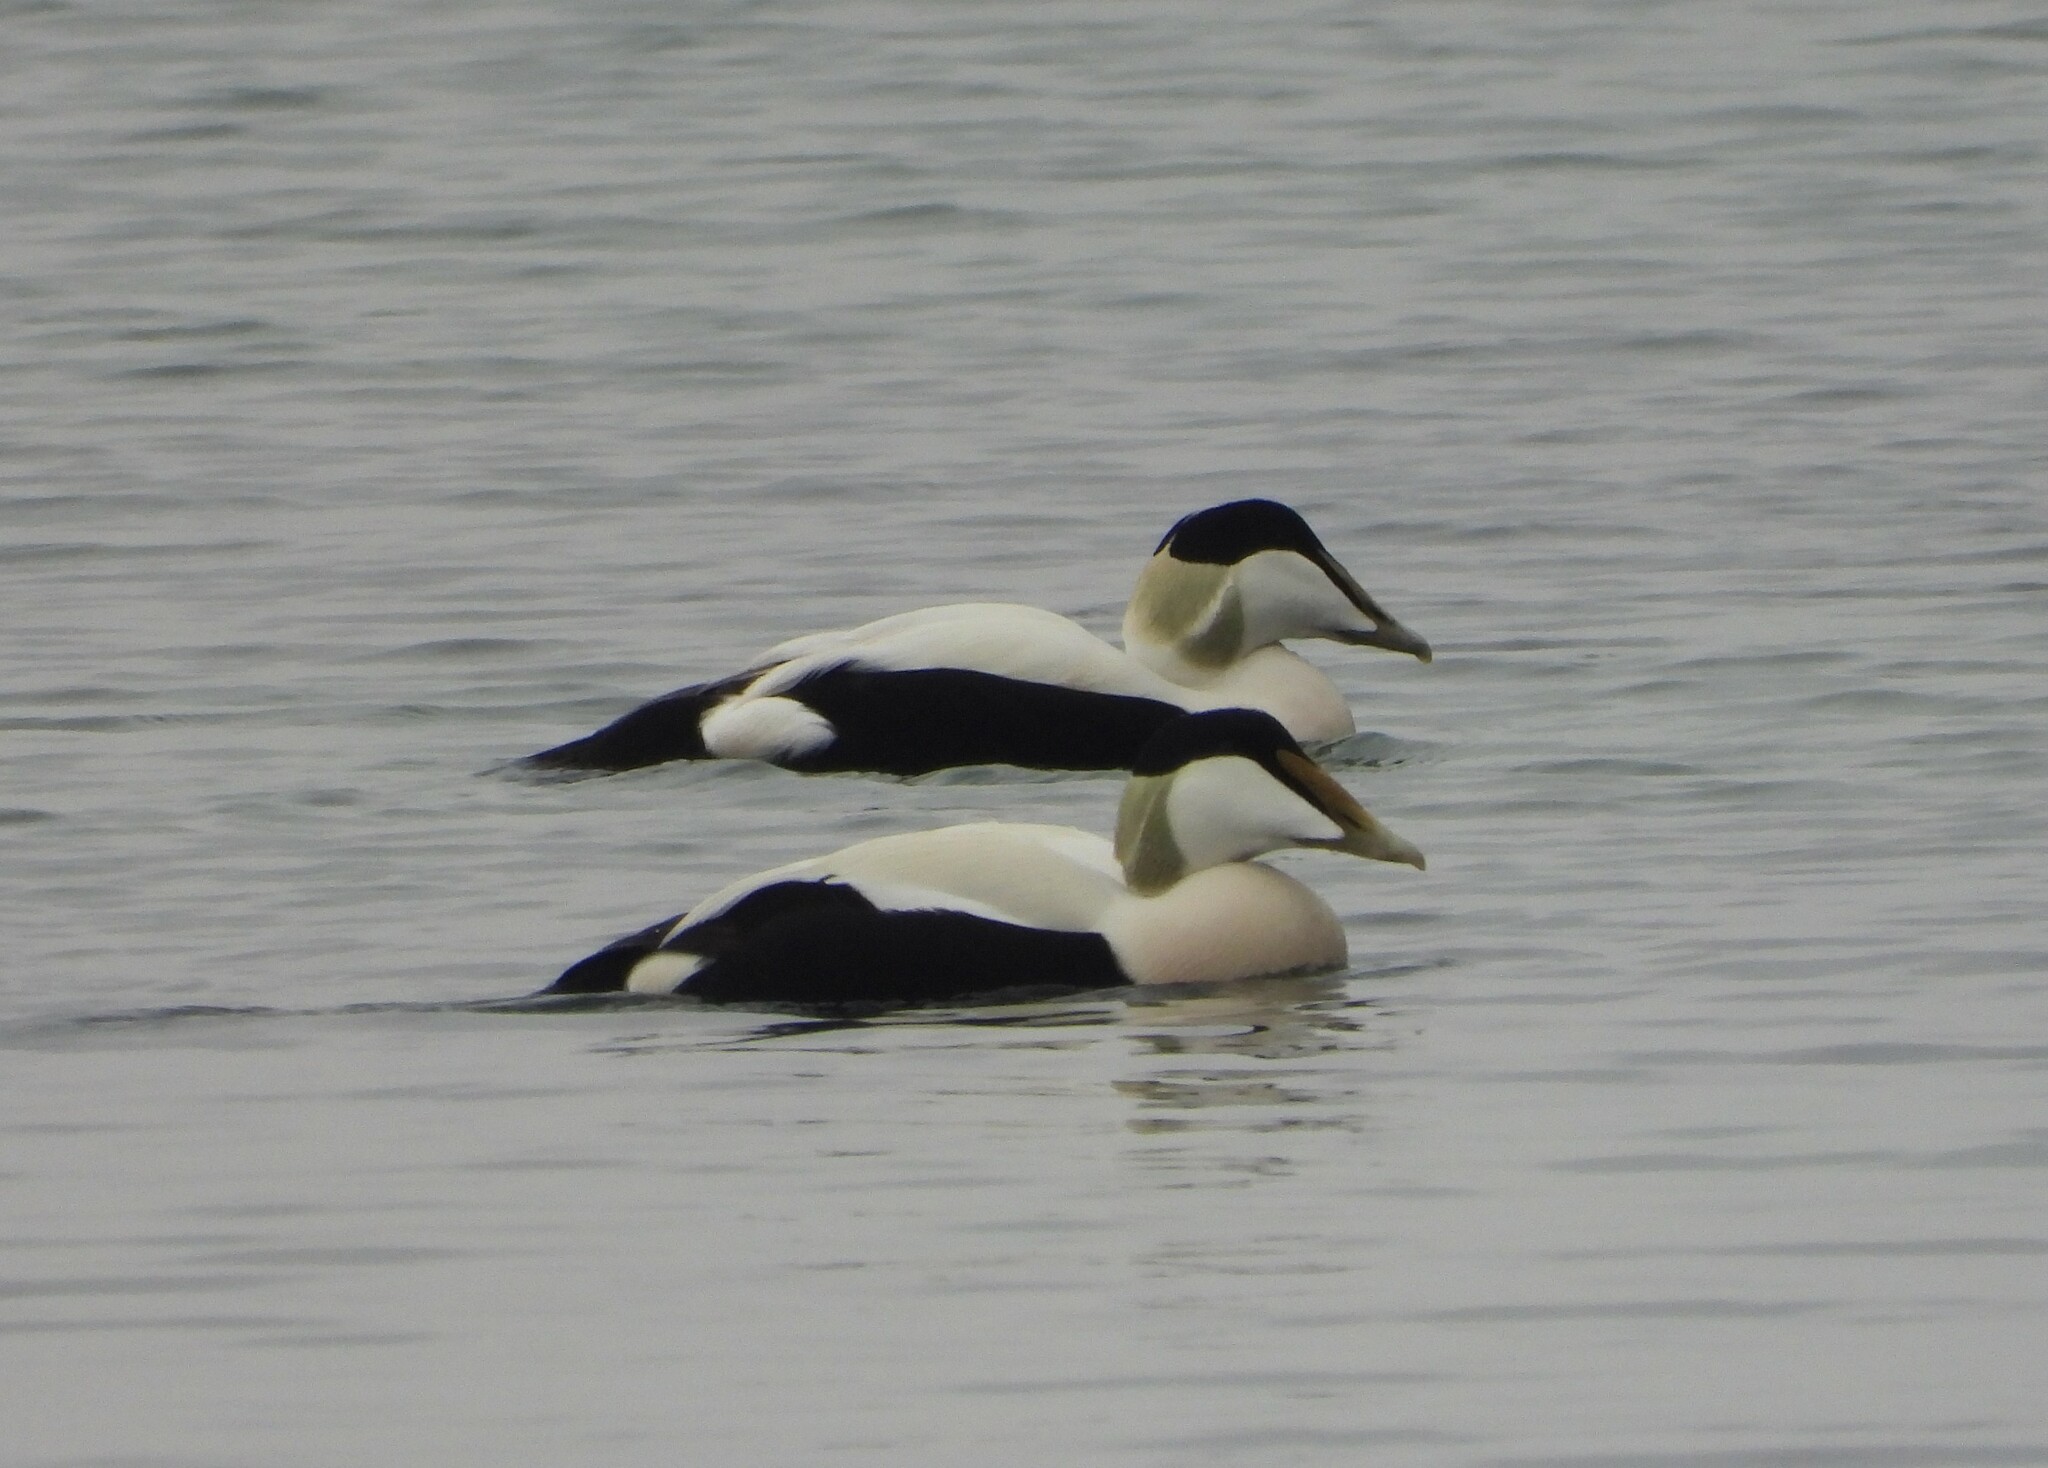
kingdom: Animalia
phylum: Chordata
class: Aves
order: Anseriformes
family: Anatidae
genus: Somateria
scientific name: Somateria mollissima
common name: Common eider
